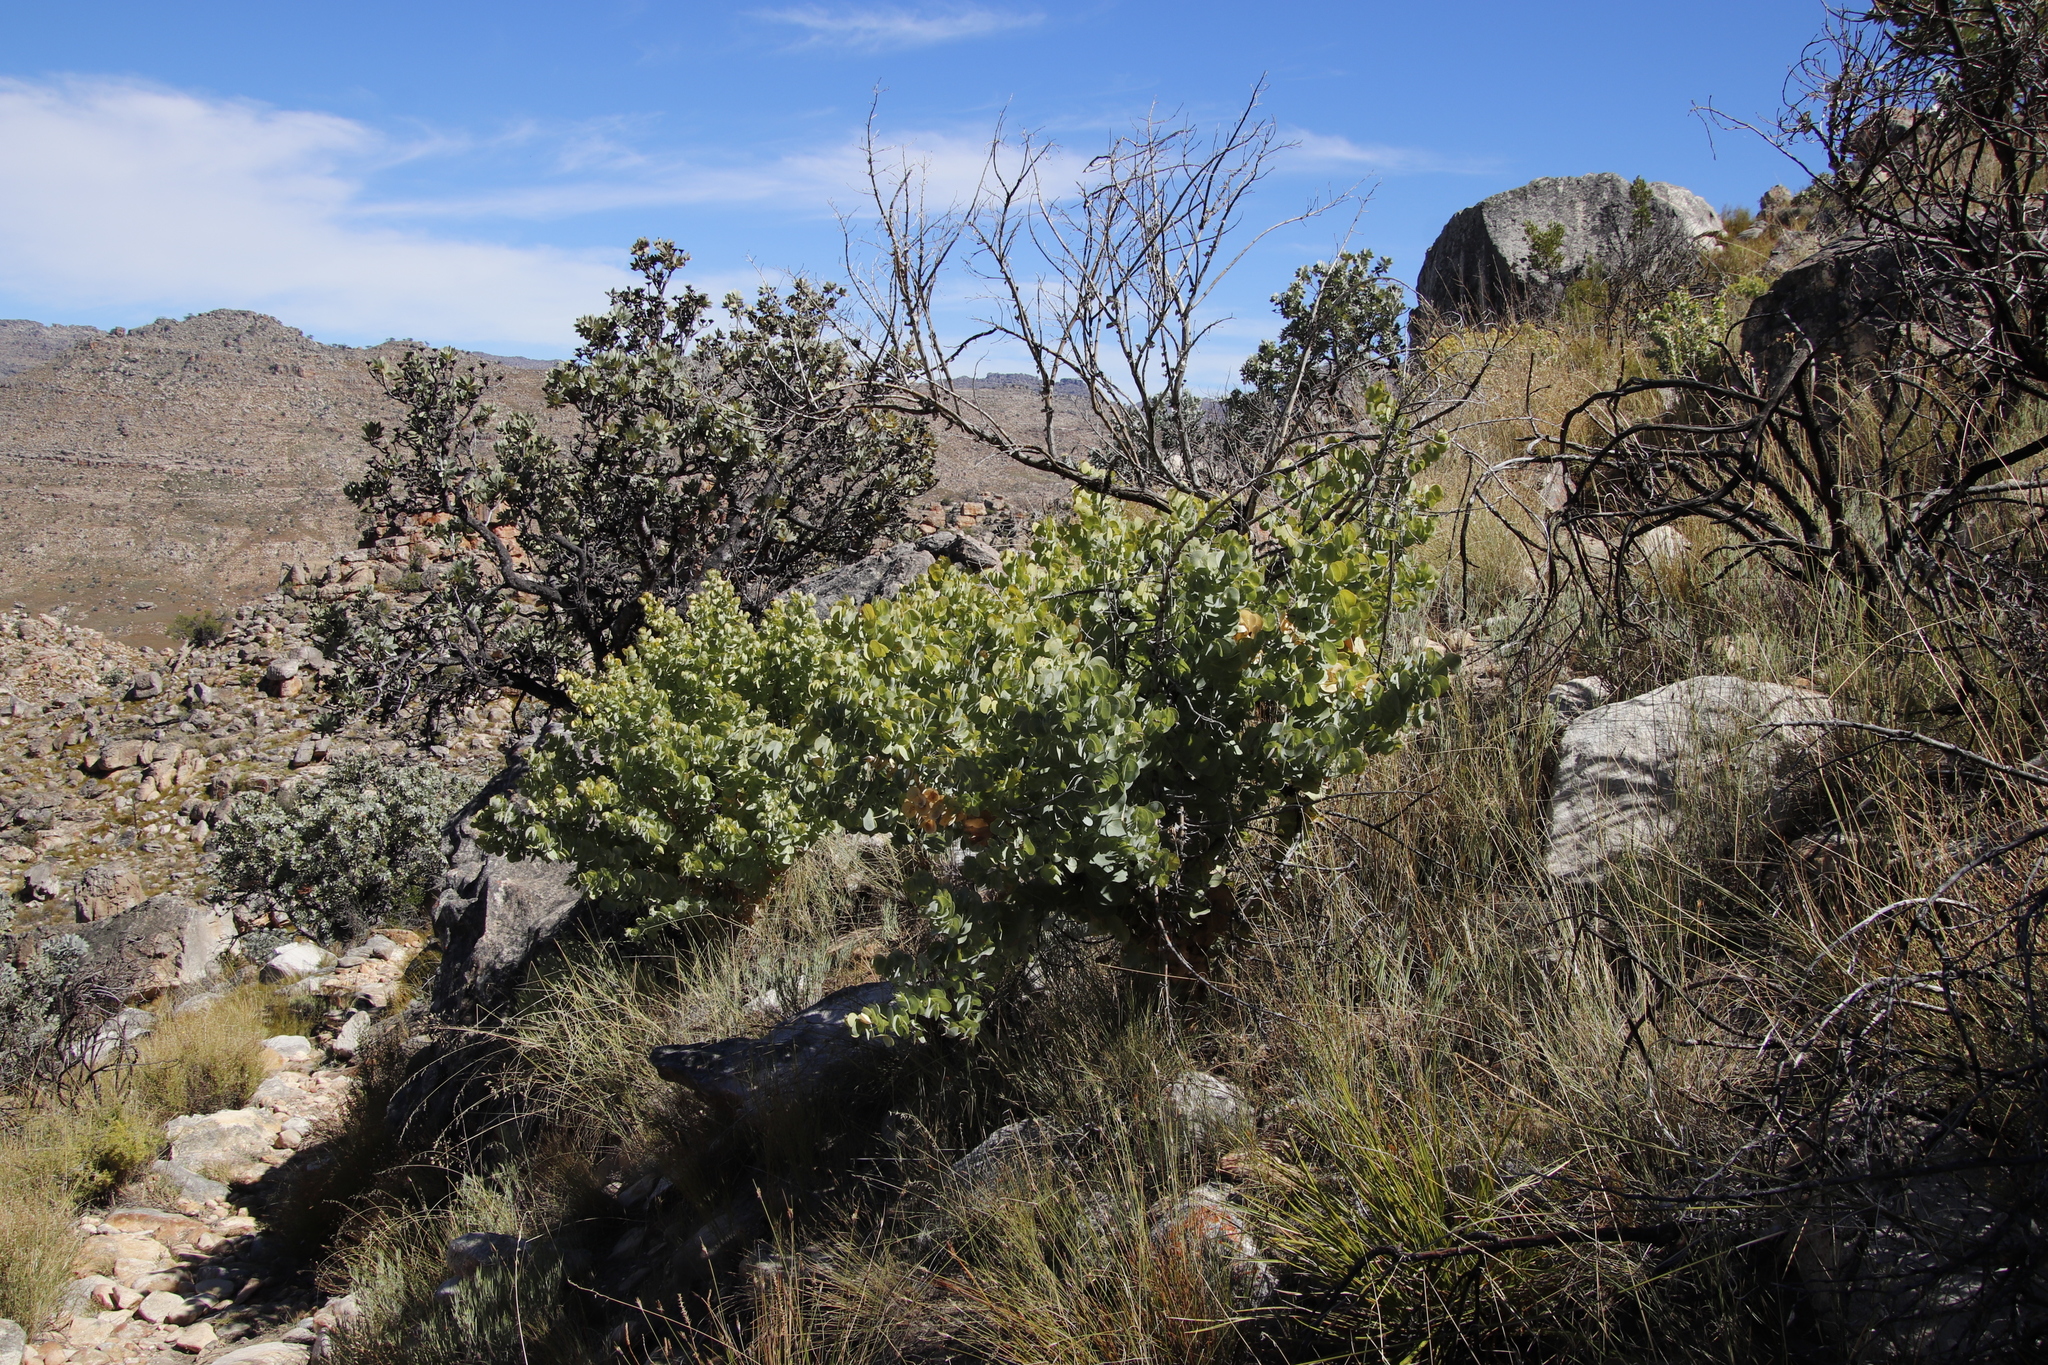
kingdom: Plantae
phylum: Tracheophyta
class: Magnoliopsida
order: Fabales
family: Fabaceae
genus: Rafnia
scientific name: Rafnia amplexicaulis
